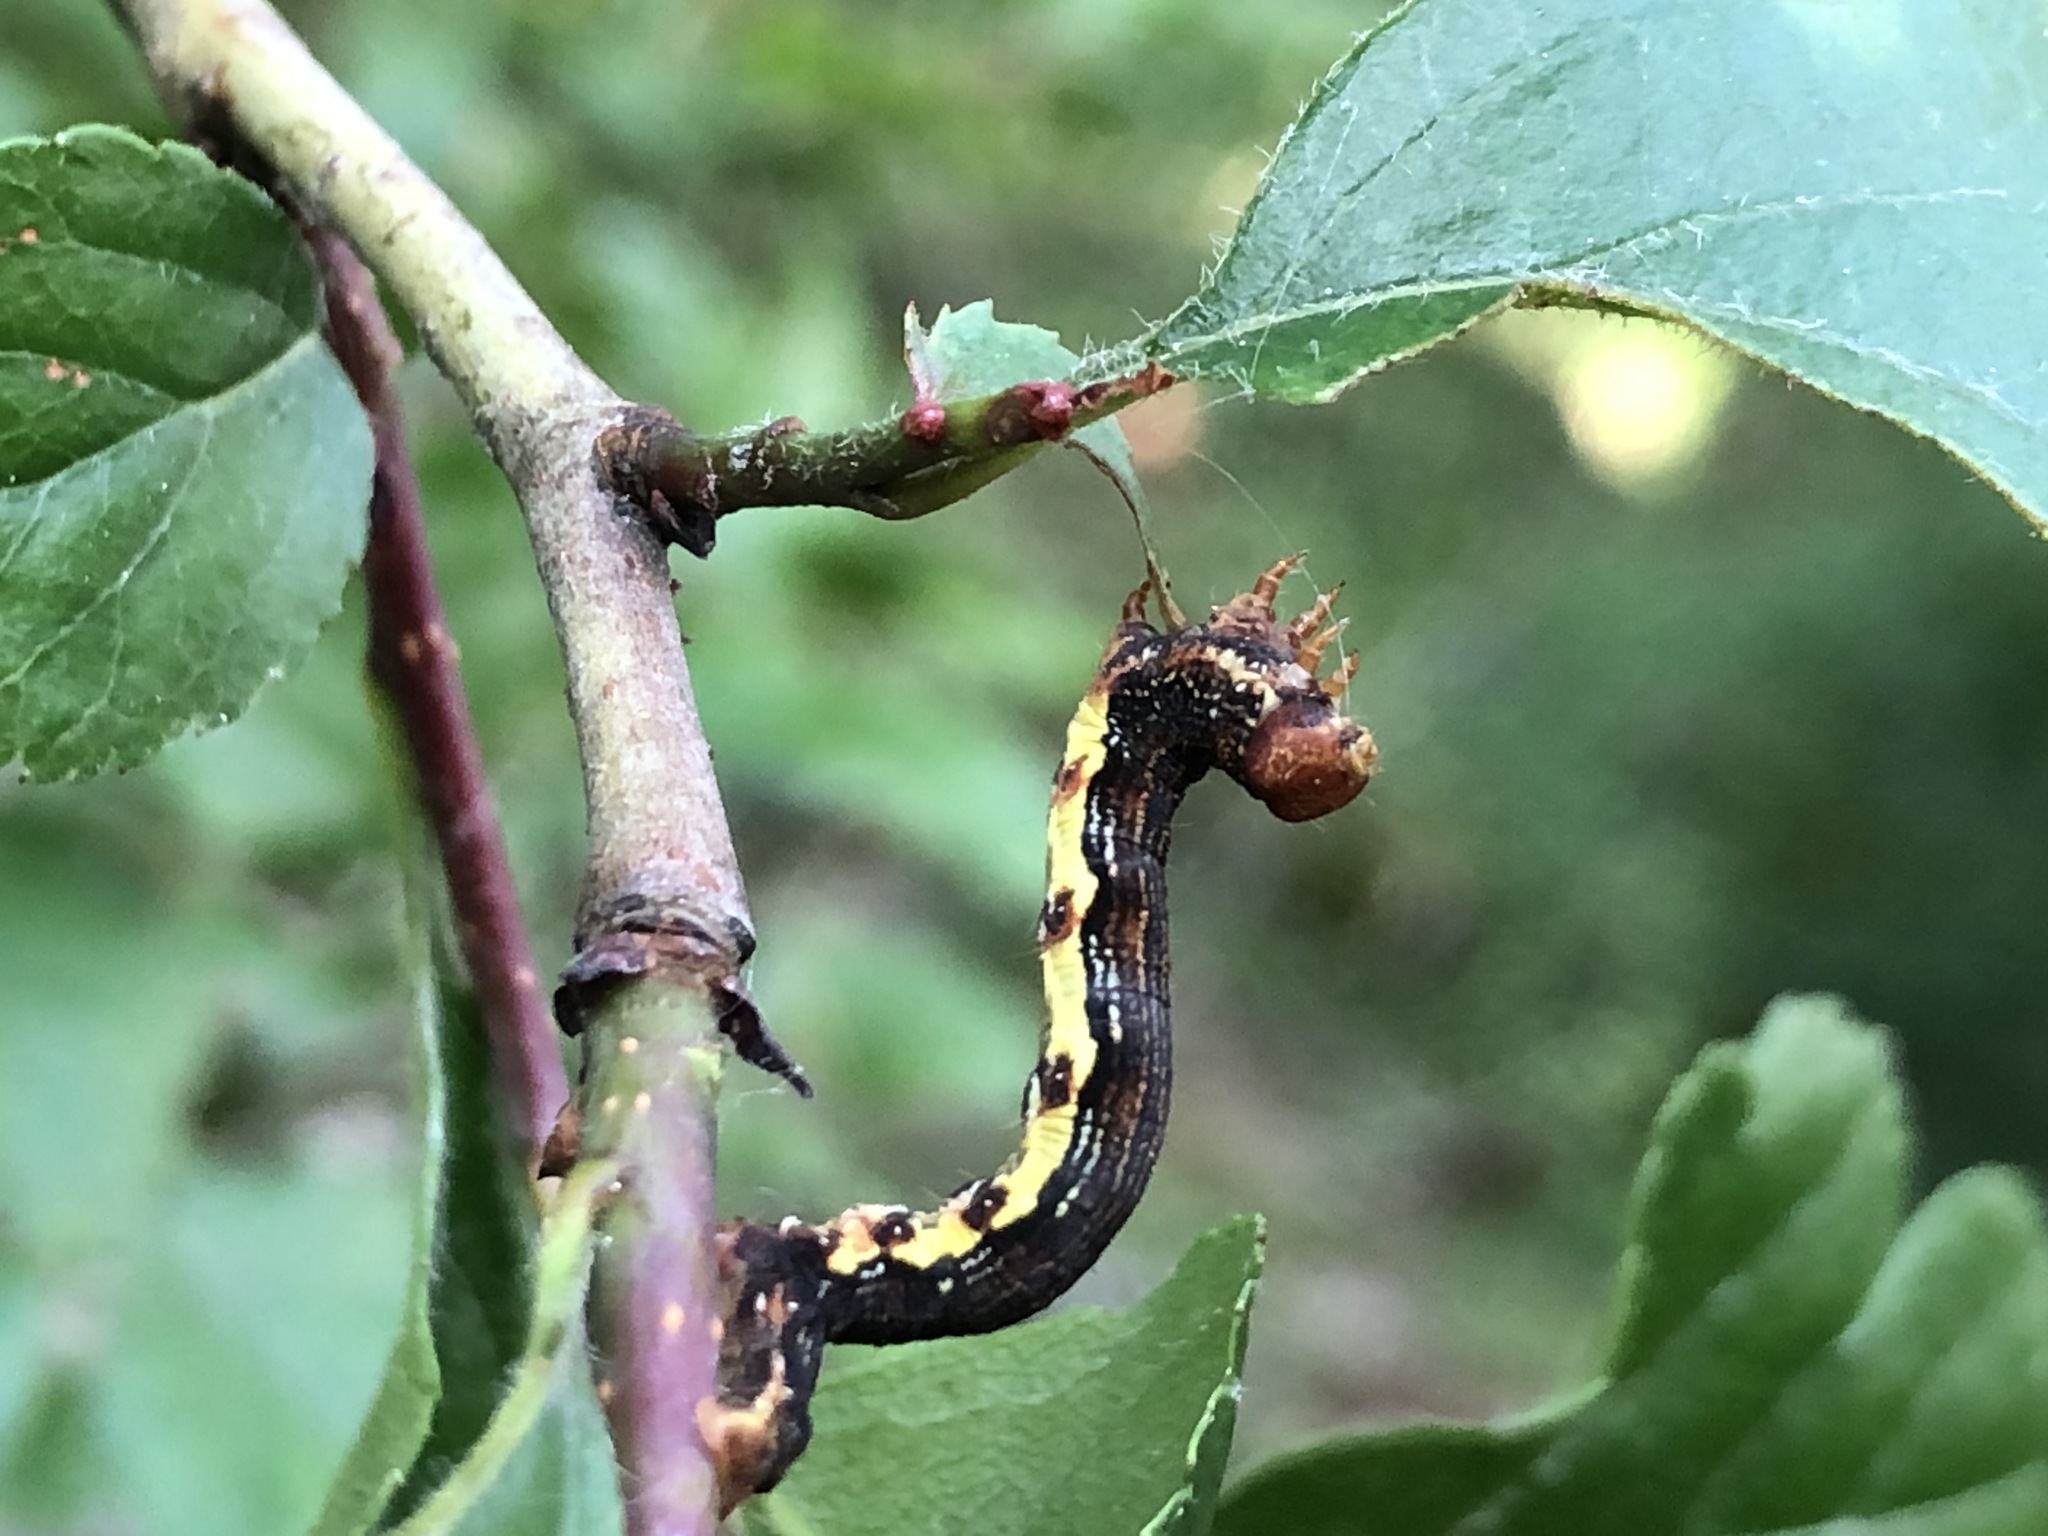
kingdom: Animalia
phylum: Arthropoda
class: Insecta
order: Lepidoptera
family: Geometridae
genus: Erannis
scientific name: Erannis defoliaria
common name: Mottled umber
